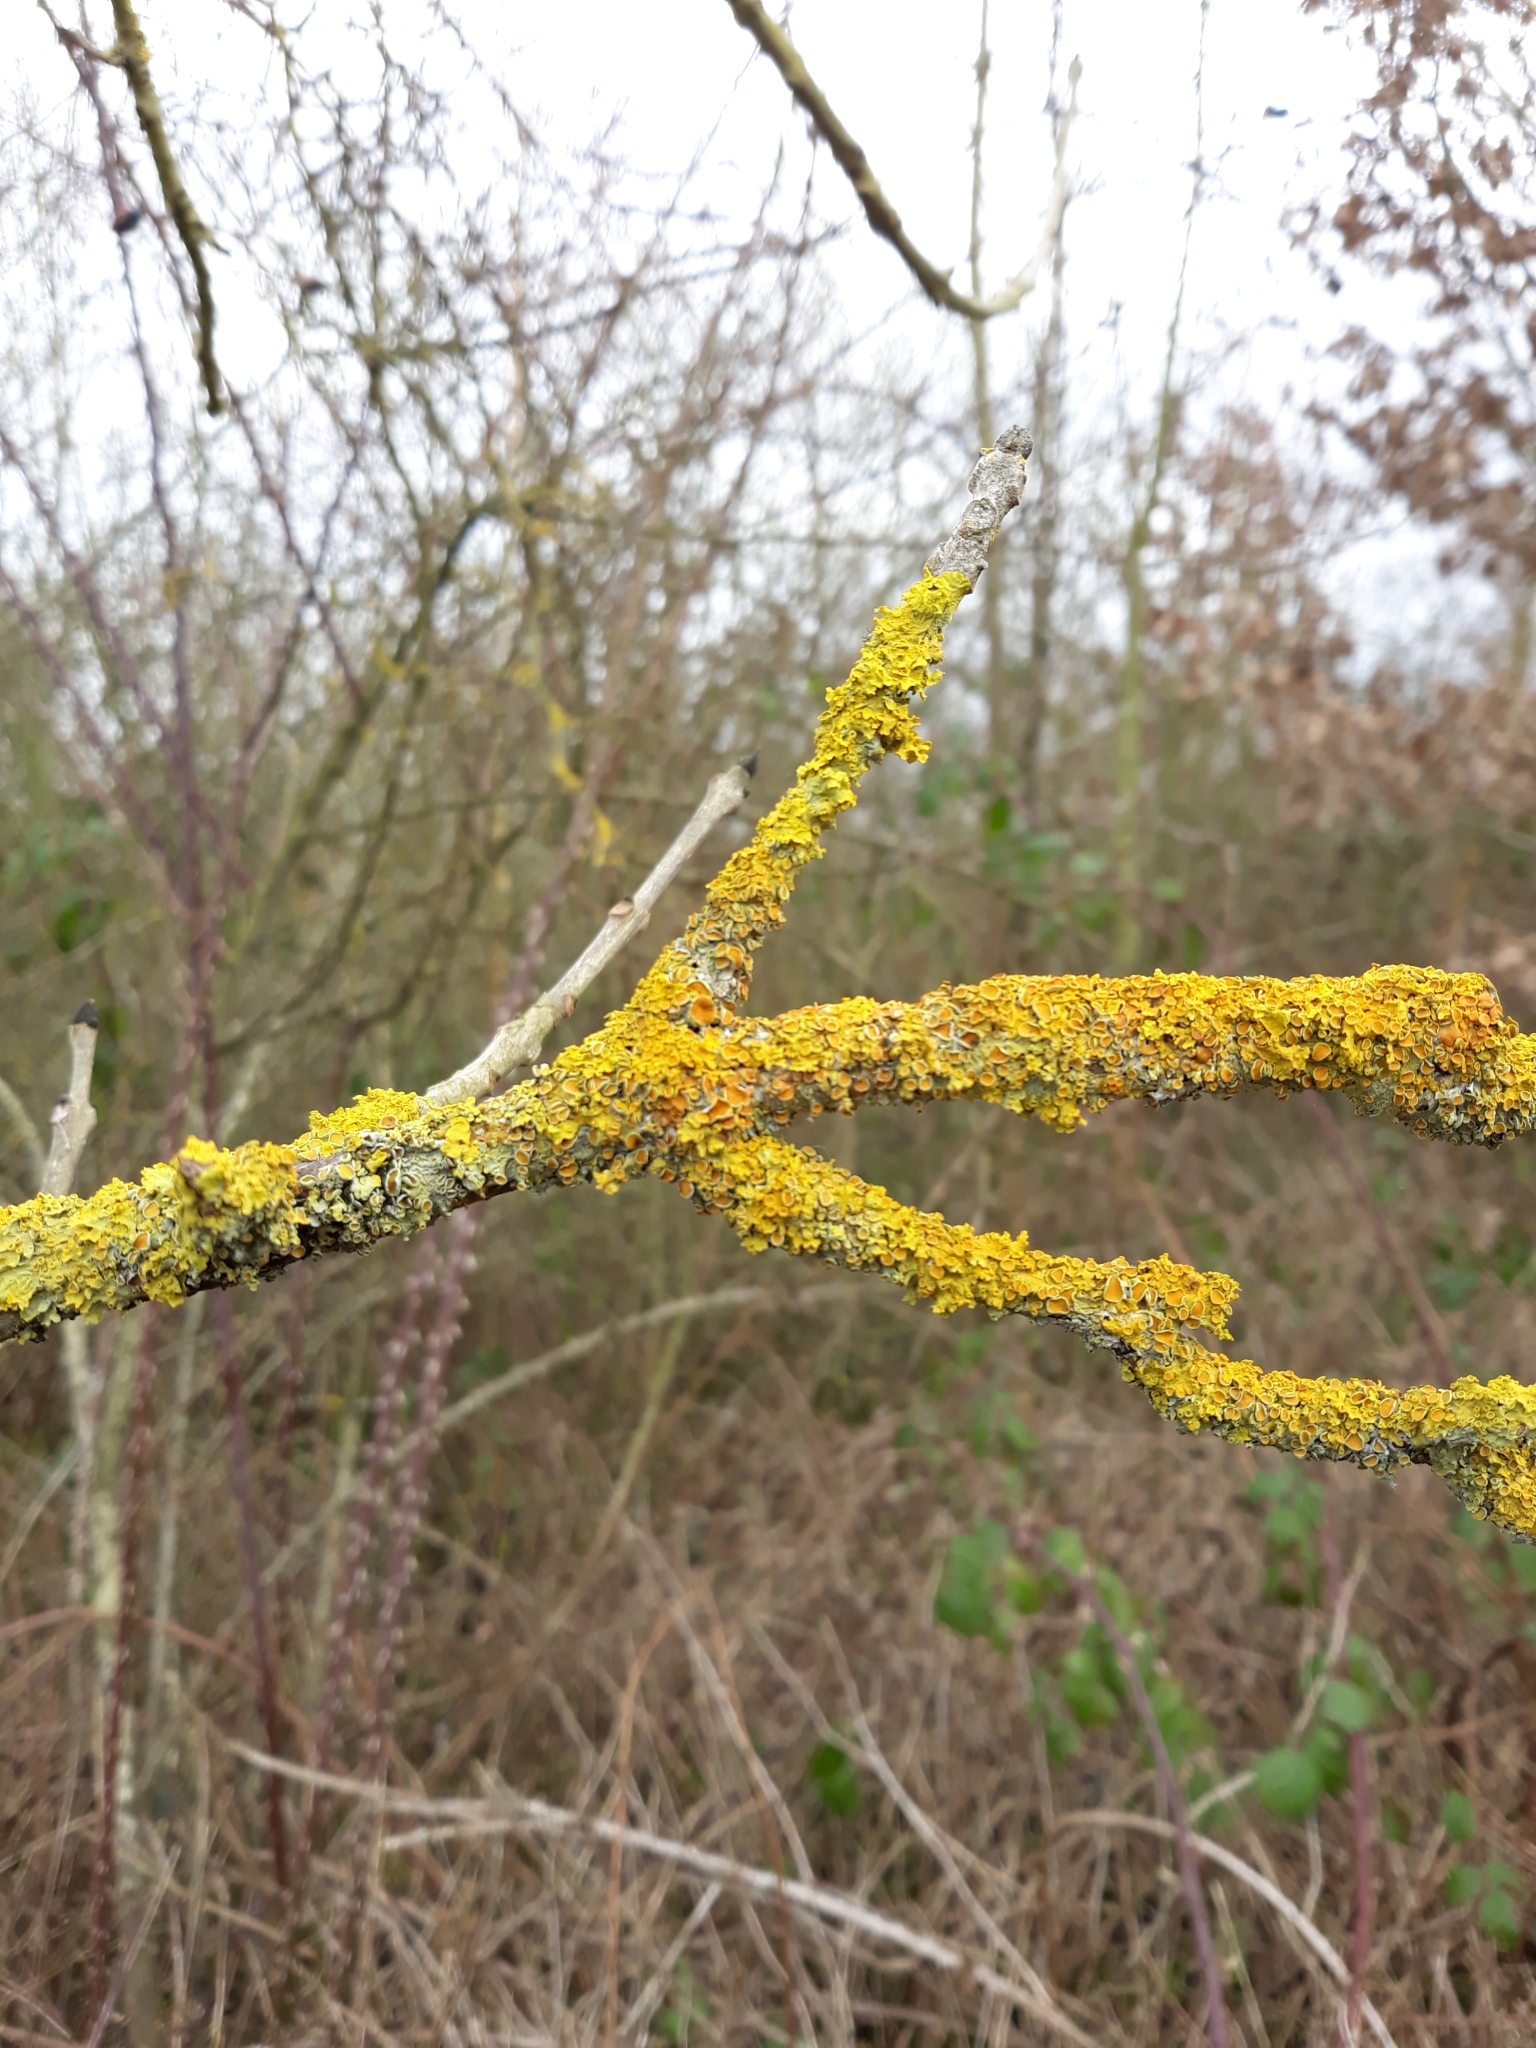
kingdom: Fungi
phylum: Ascomycota
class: Lecanoromycetes
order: Teloschistales
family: Teloschistaceae
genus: Xanthoria
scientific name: Xanthoria parietina
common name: Common orange lichen
